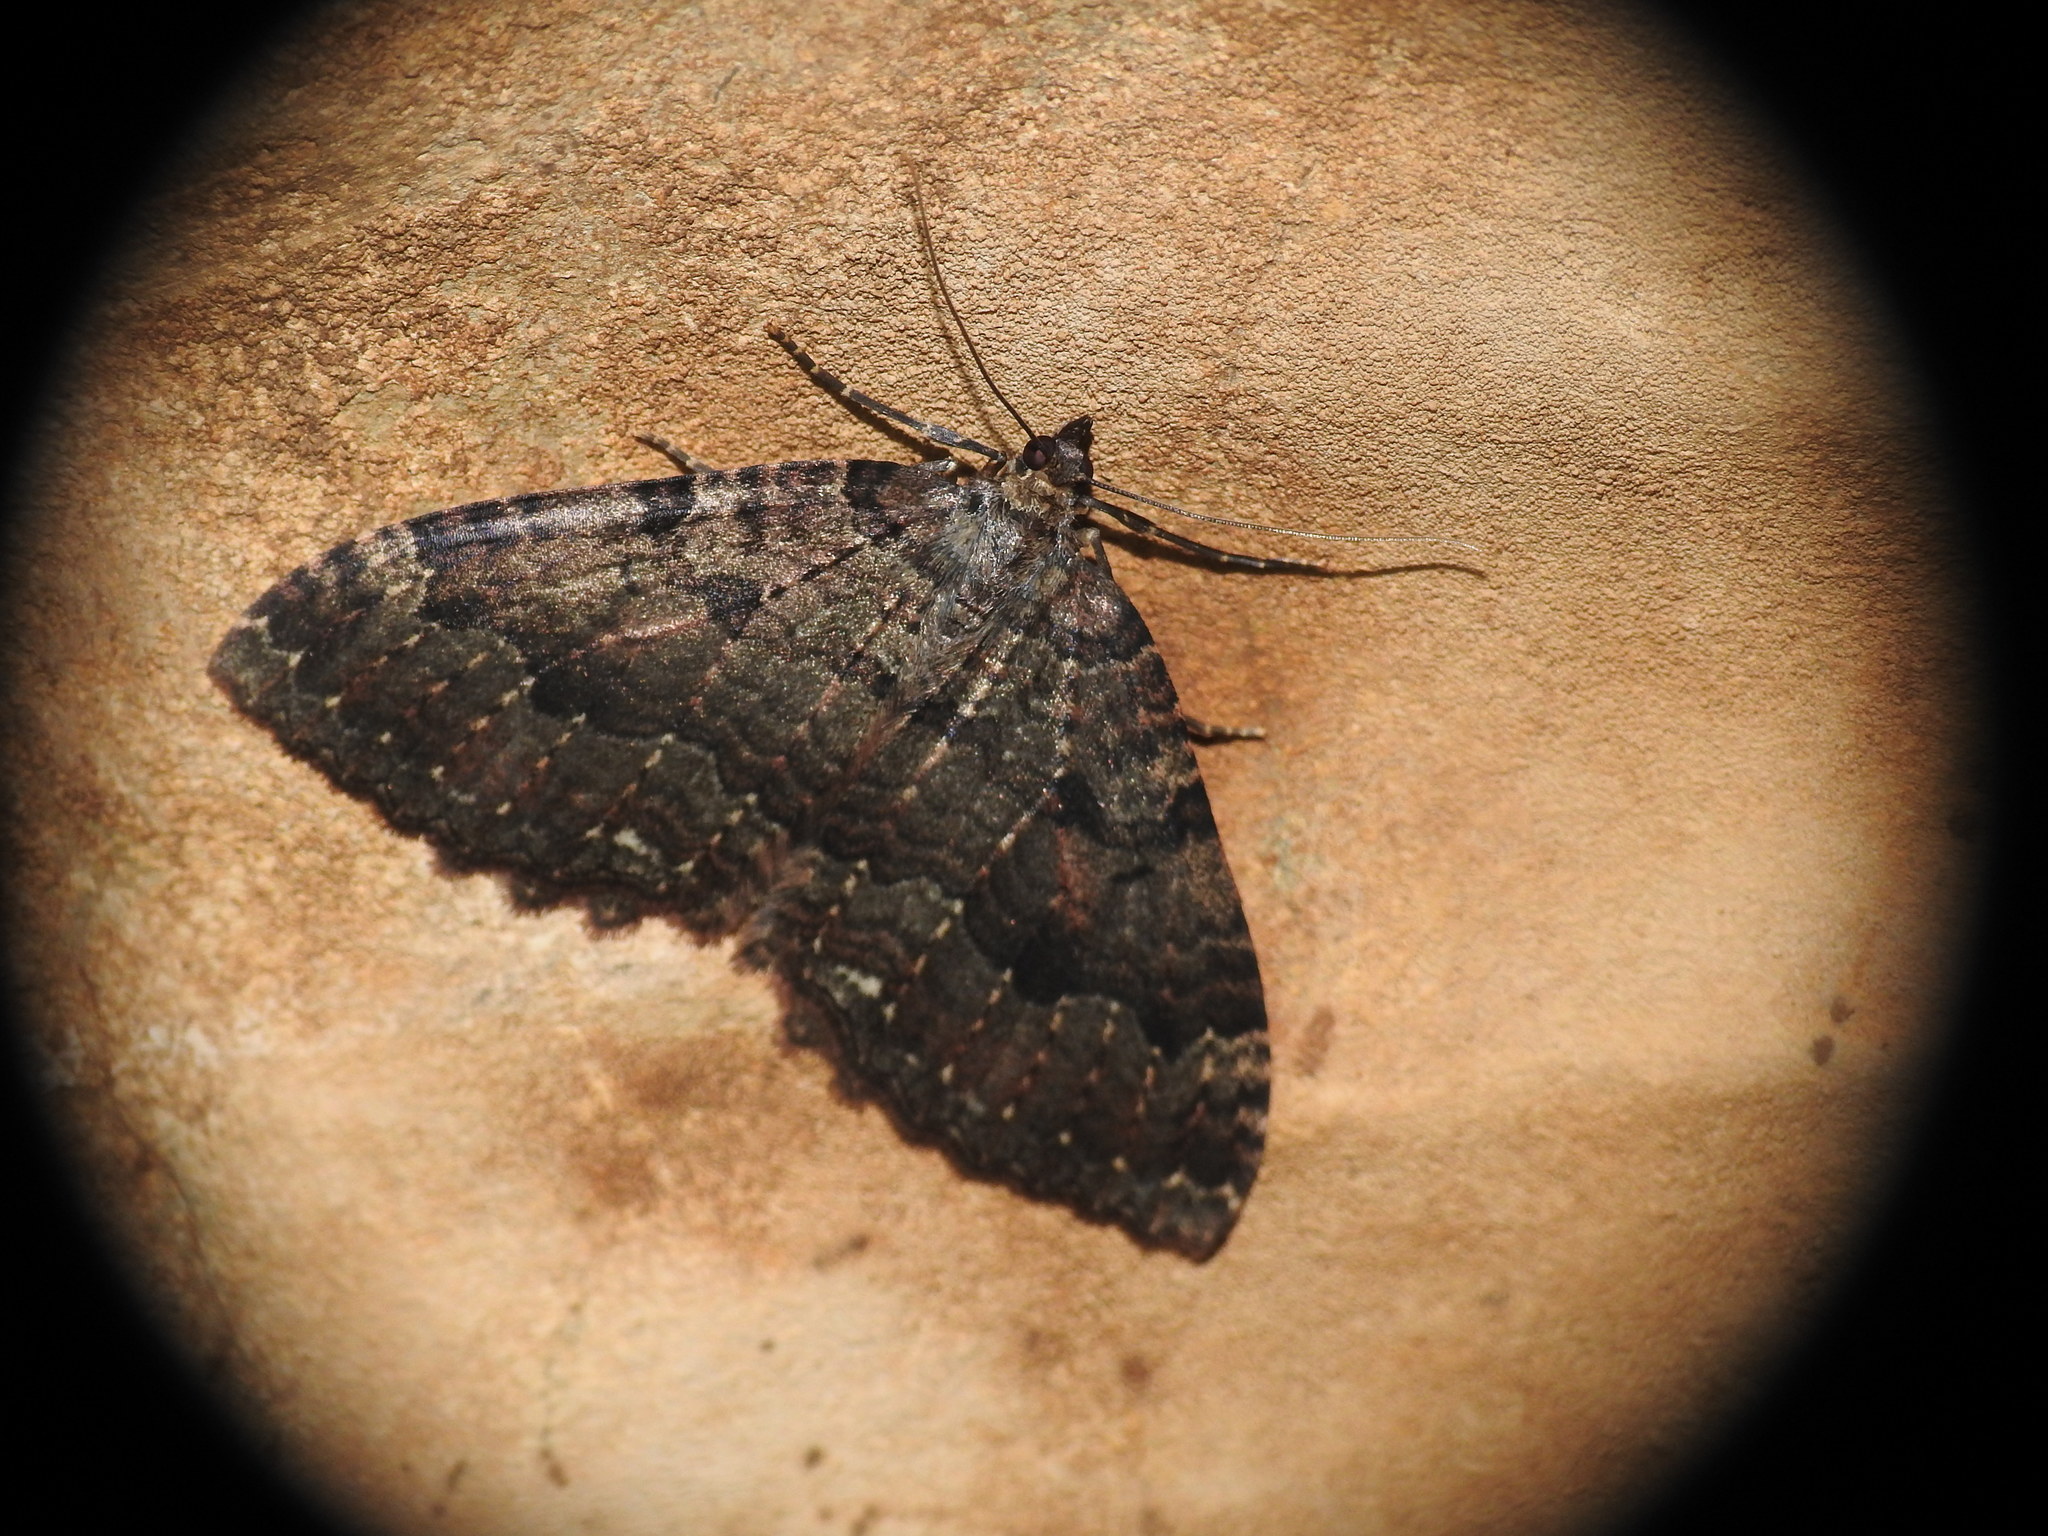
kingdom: Animalia
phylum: Arthropoda
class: Insecta
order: Lepidoptera
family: Geometridae
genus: Triphosa
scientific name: Triphosa dubitata
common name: Tissue
